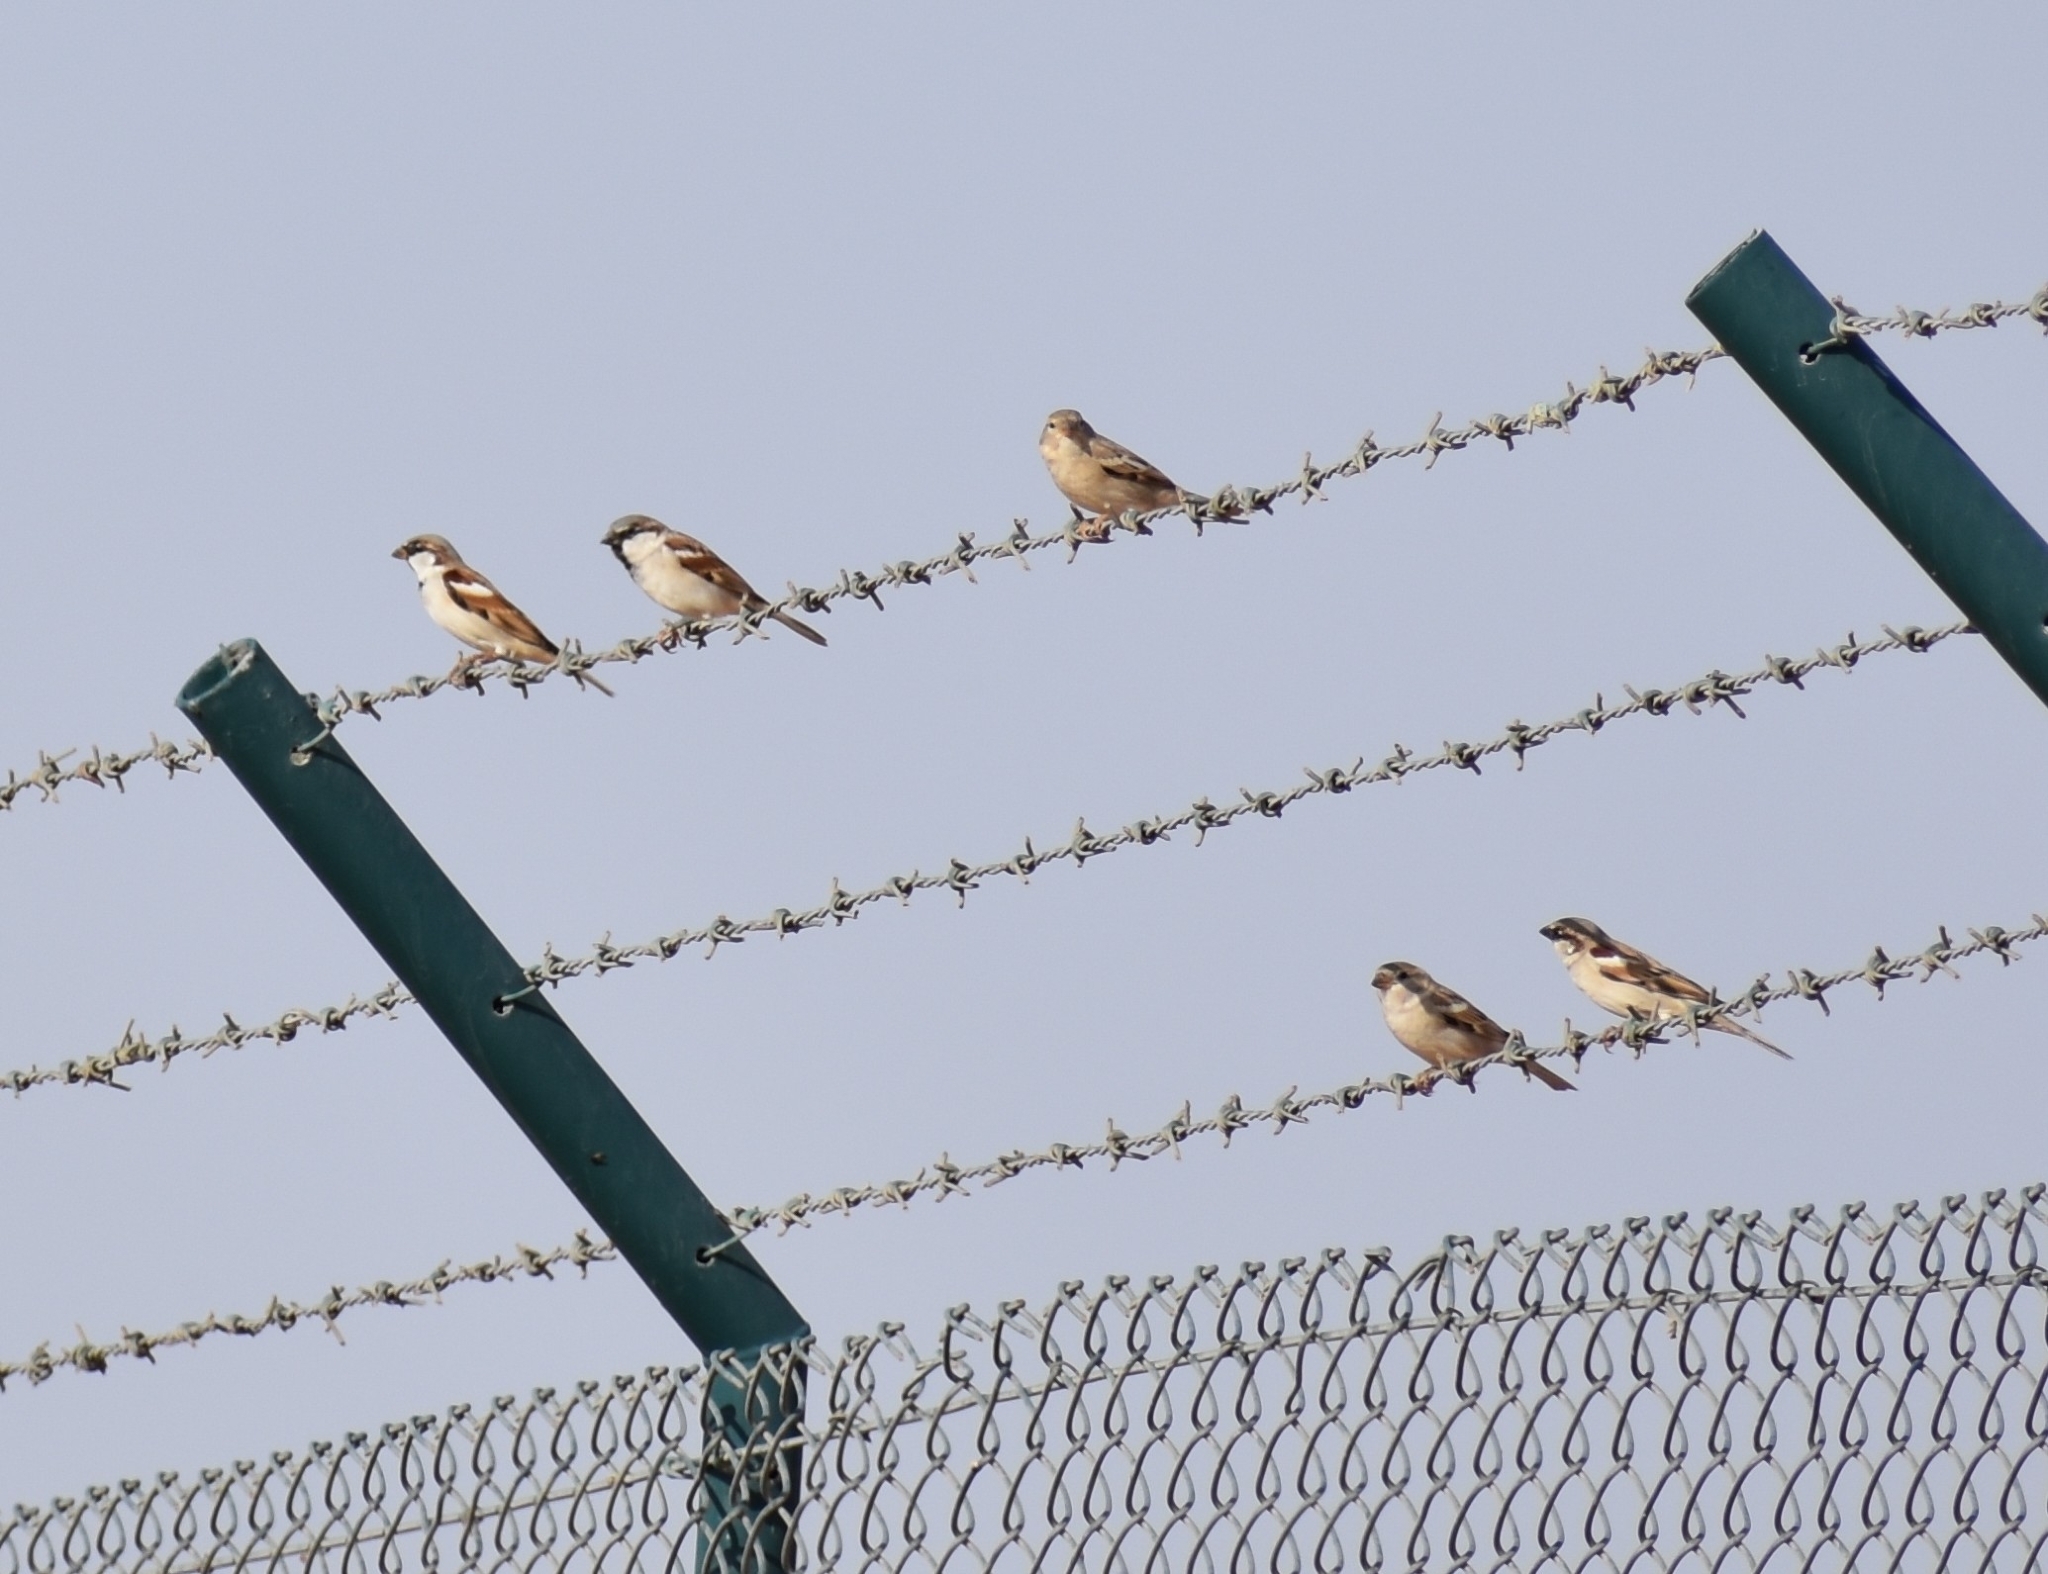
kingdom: Animalia
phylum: Chordata
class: Aves
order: Passeriformes
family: Passeridae
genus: Passer
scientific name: Passer domesticus
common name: House sparrow
